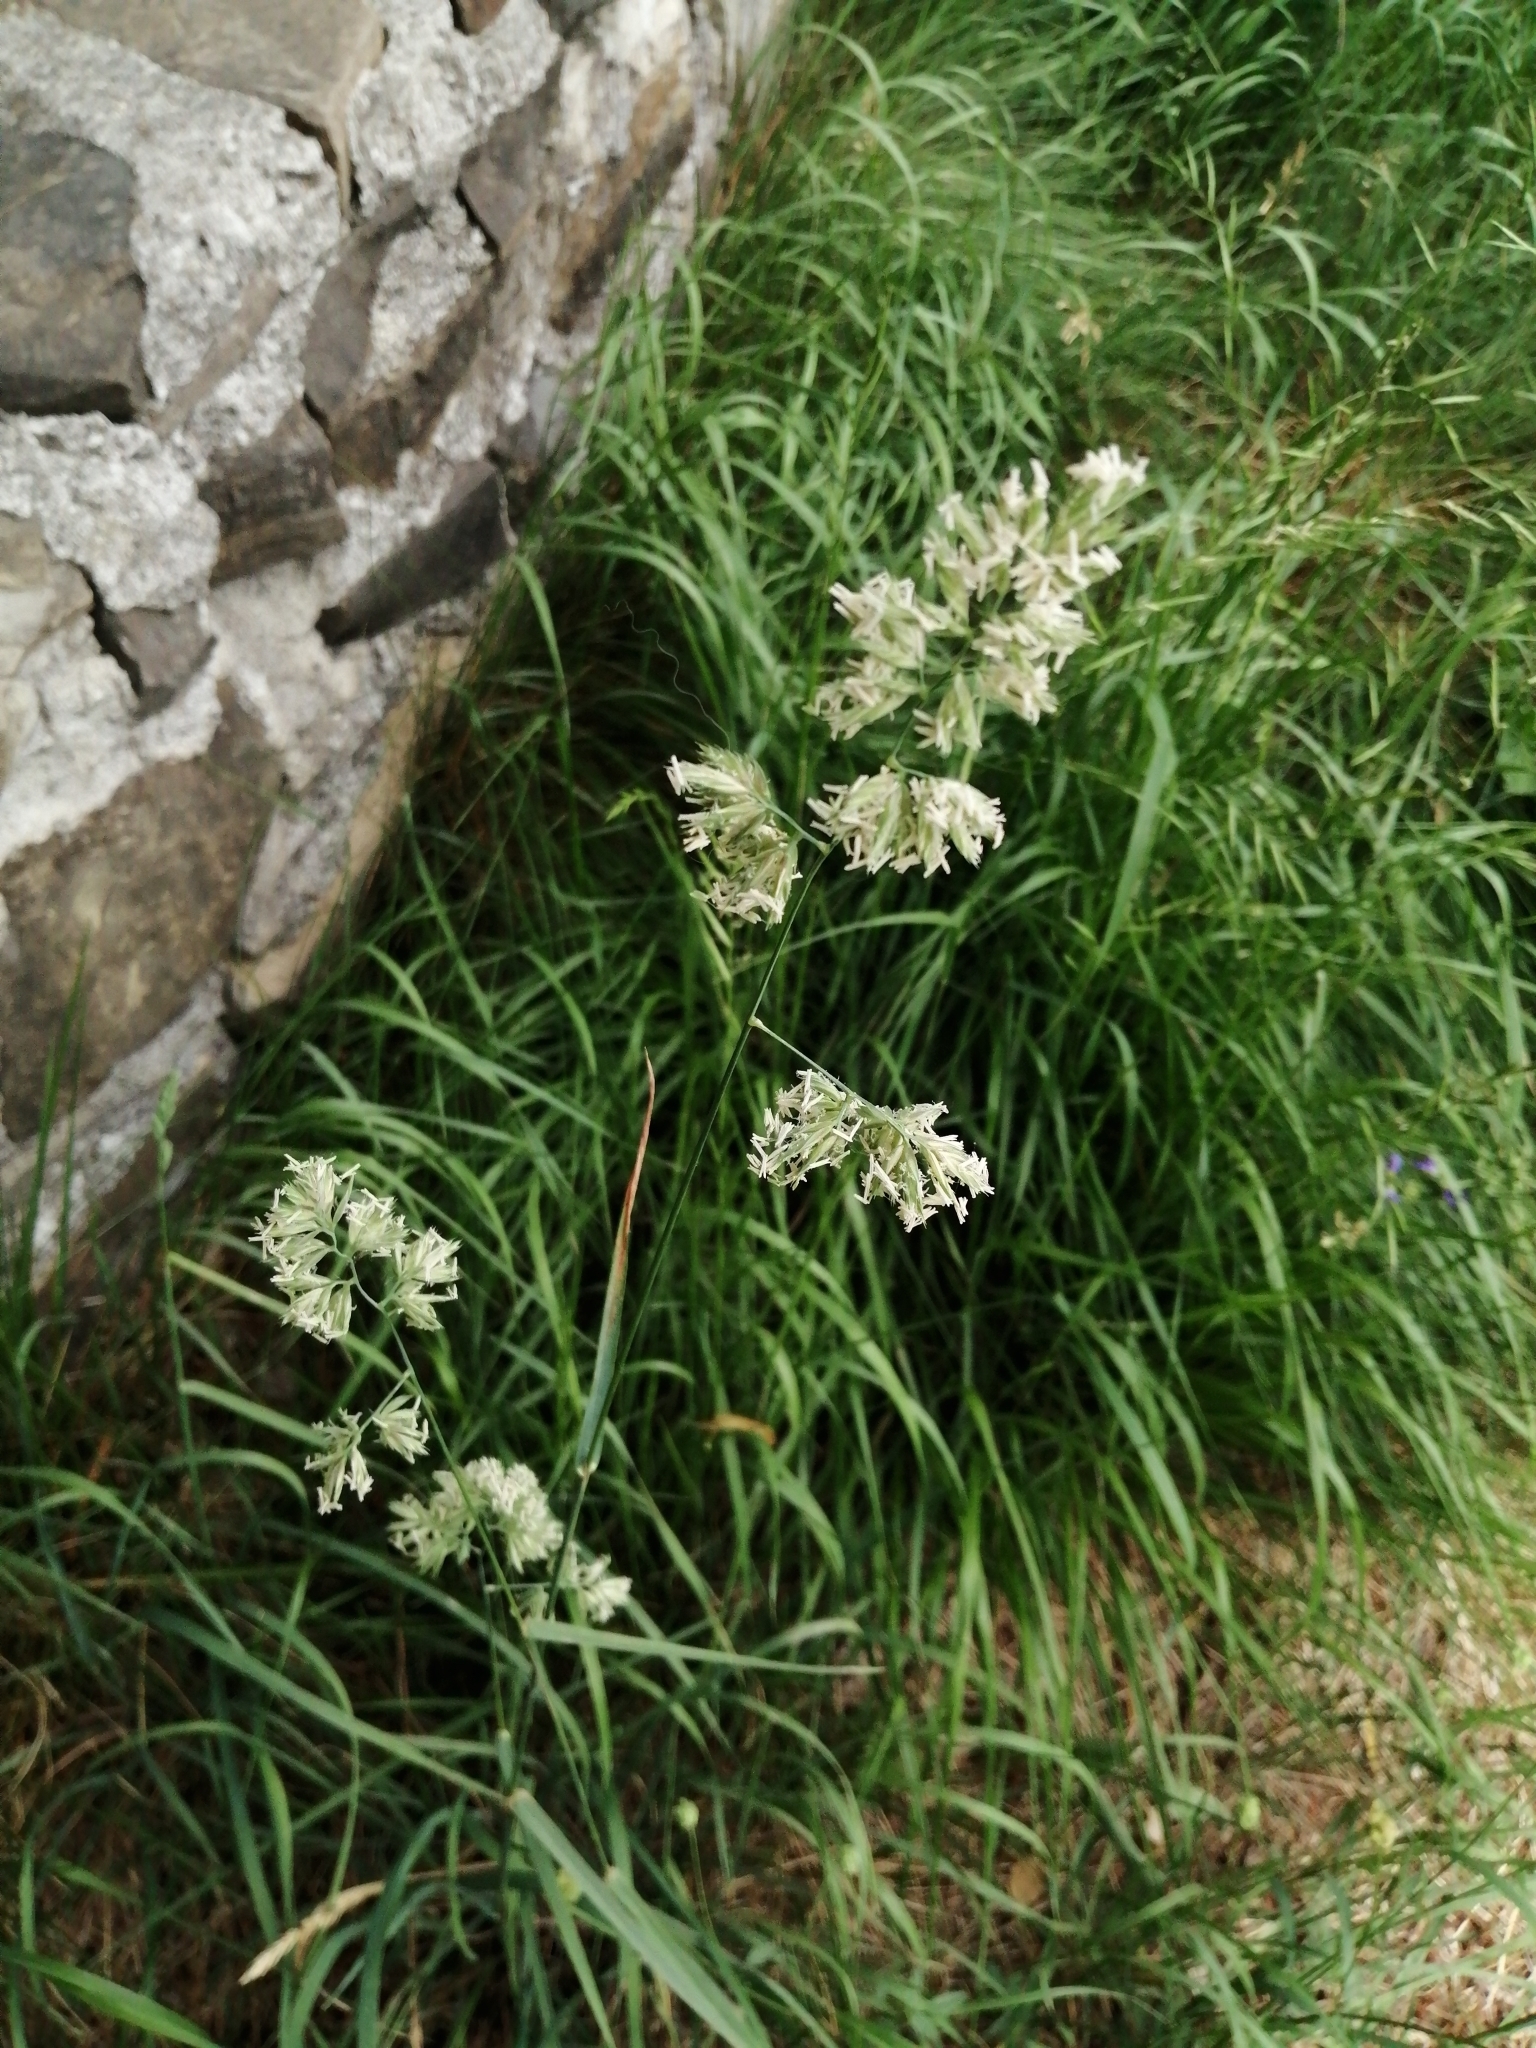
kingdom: Plantae
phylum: Tracheophyta
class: Liliopsida
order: Poales
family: Poaceae
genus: Dactylis
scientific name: Dactylis glomerata
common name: Orchardgrass
